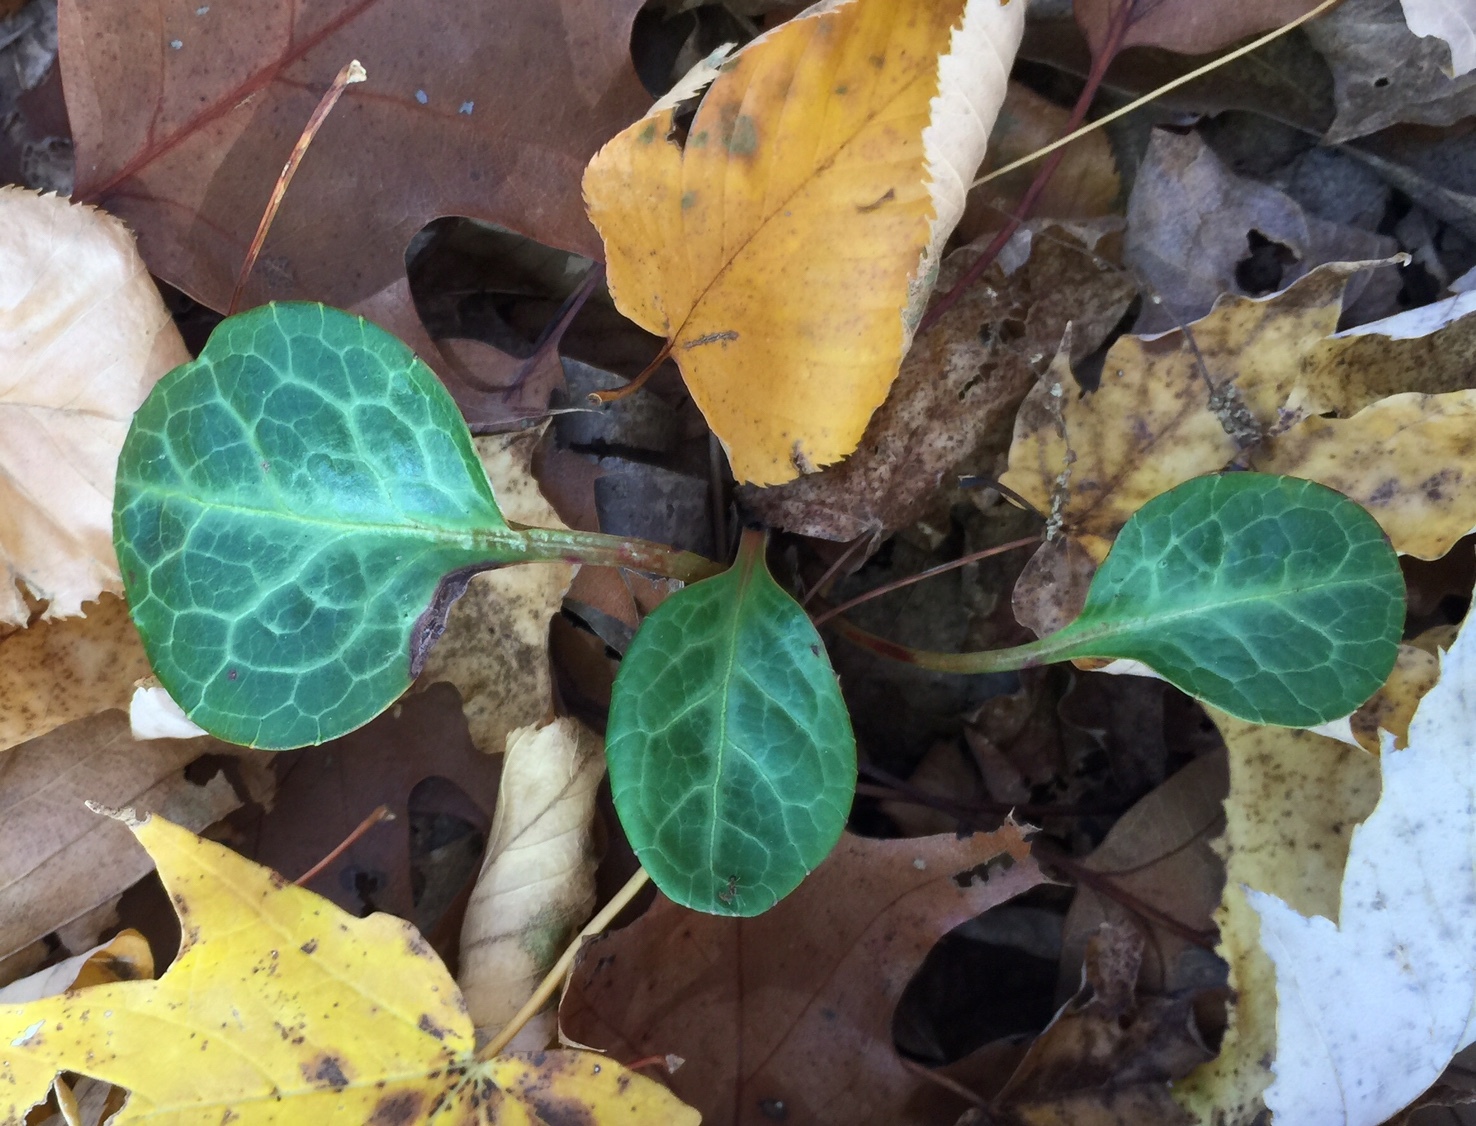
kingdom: Plantae
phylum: Tracheophyta
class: Magnoliopsida
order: Ericales
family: Ericaceae
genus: Pyrola
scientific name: Pyrola americana
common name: American wintergreen
